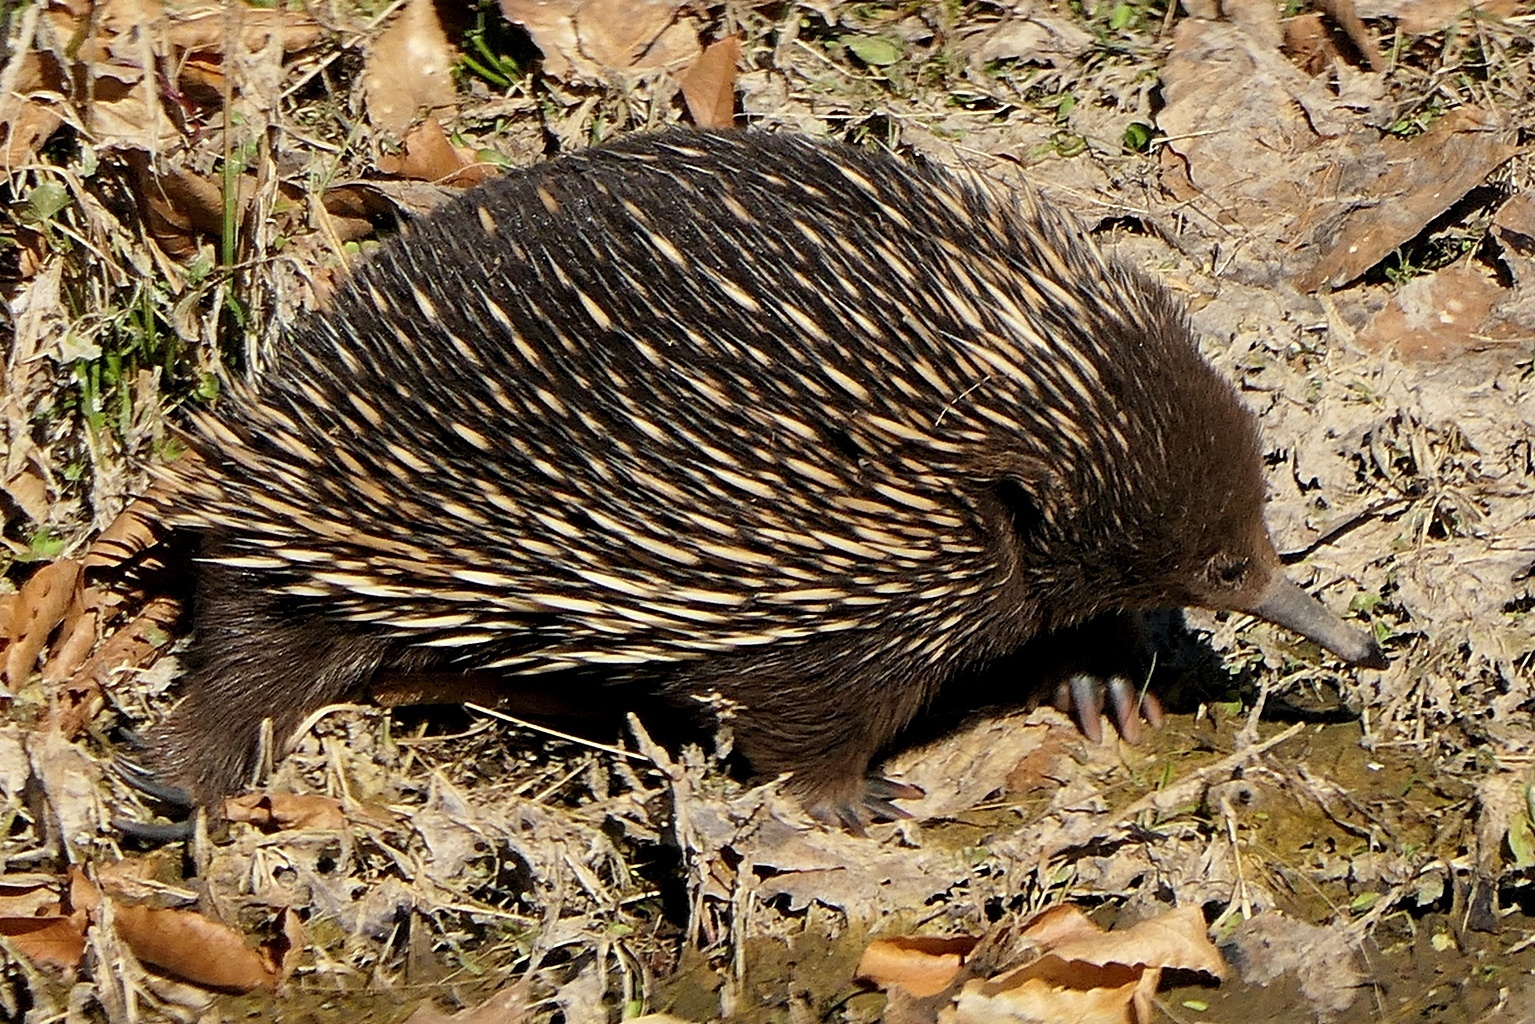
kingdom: Animalia
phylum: Chordata
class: Mammalia
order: Monotremata
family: Tachyglossidae
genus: Tachyglossus
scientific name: Tachyglossus aculeatus
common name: Short-beaked echidna
